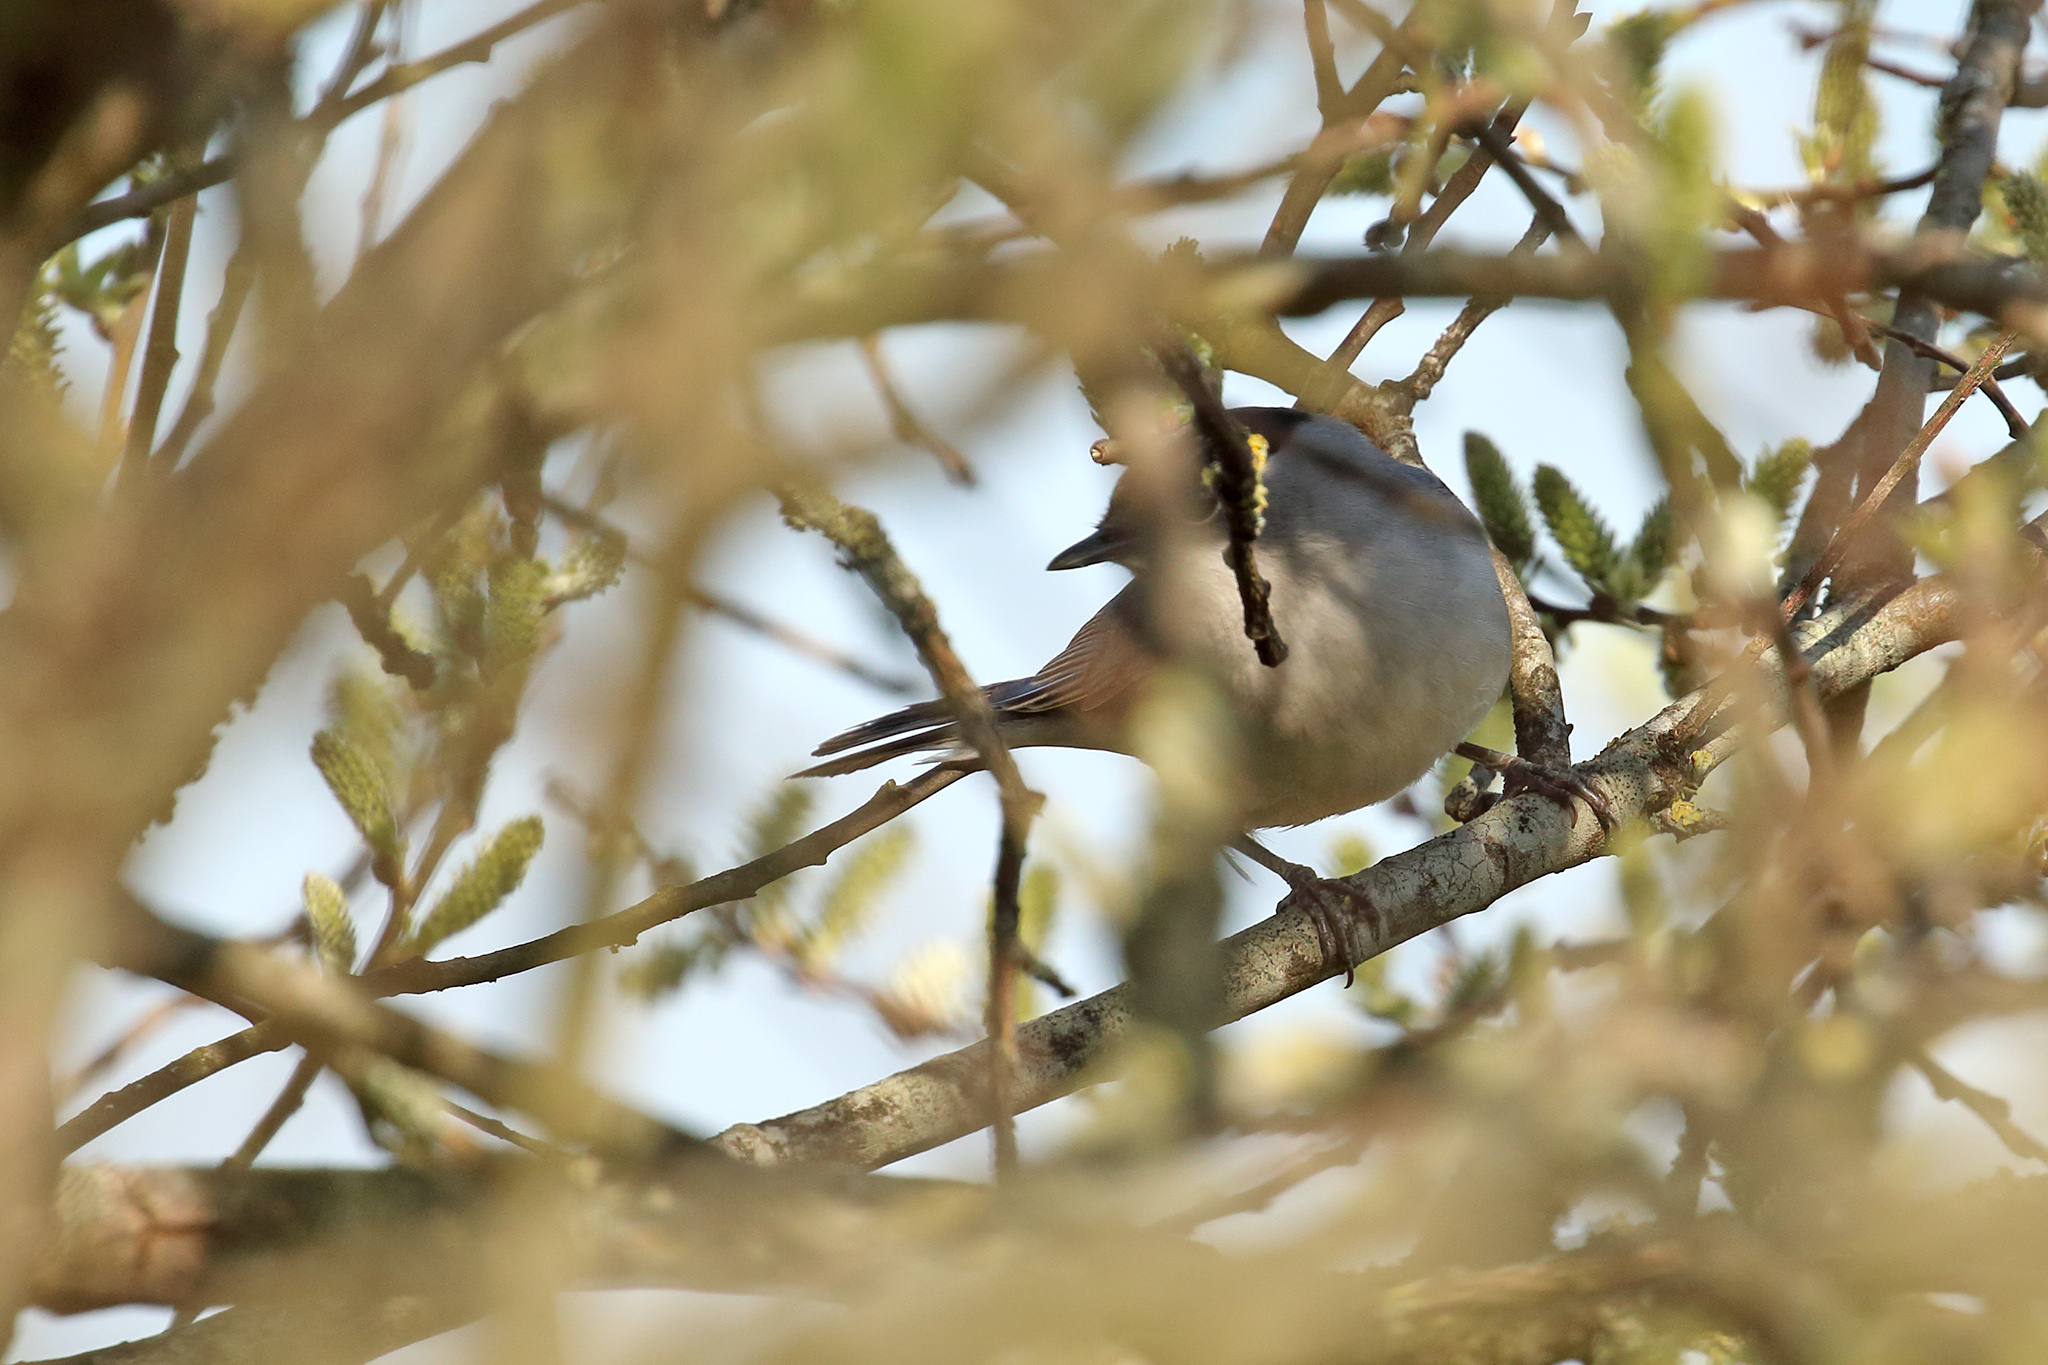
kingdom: Animalia
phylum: Chordata
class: Aves
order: Passeriformes
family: Sylviidae
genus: Sylvia
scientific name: Sylvia atricapilla
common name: Eurasian blackcap
